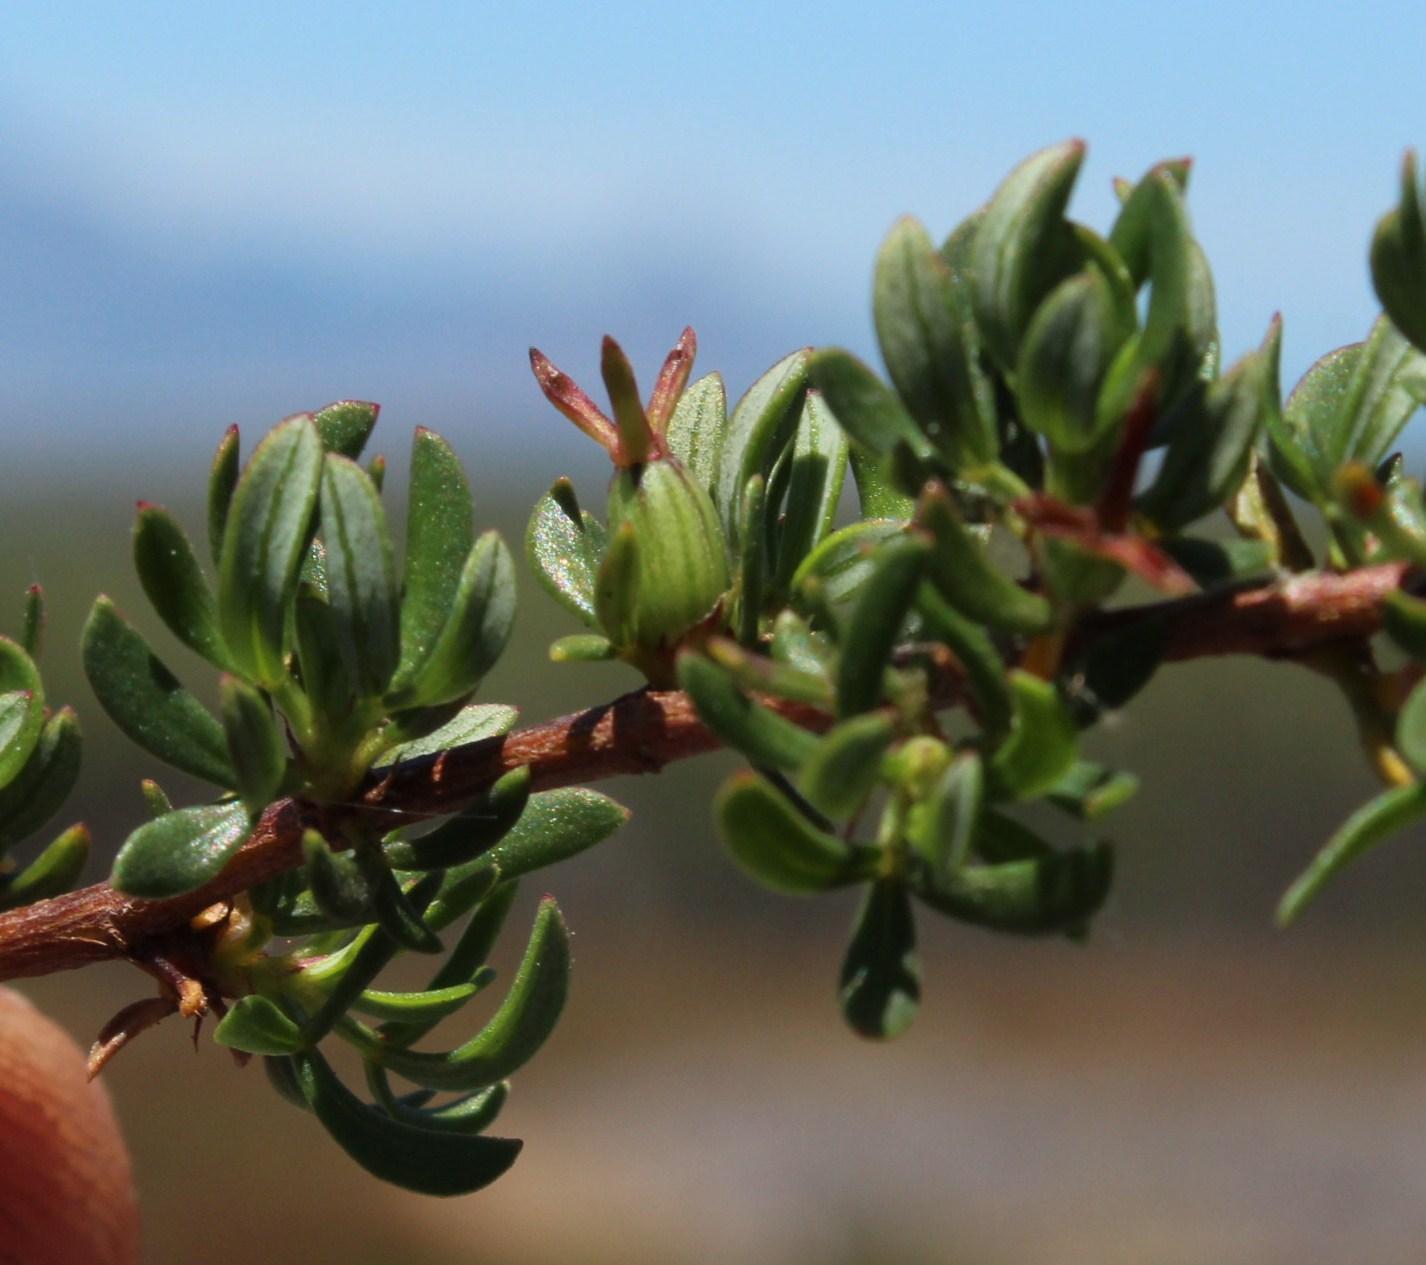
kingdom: Plantae
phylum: Tracheophyta
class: Magnoliopsida
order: Rosales
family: Rosaceae
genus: Cliffortia
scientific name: Cliffortia falcata
